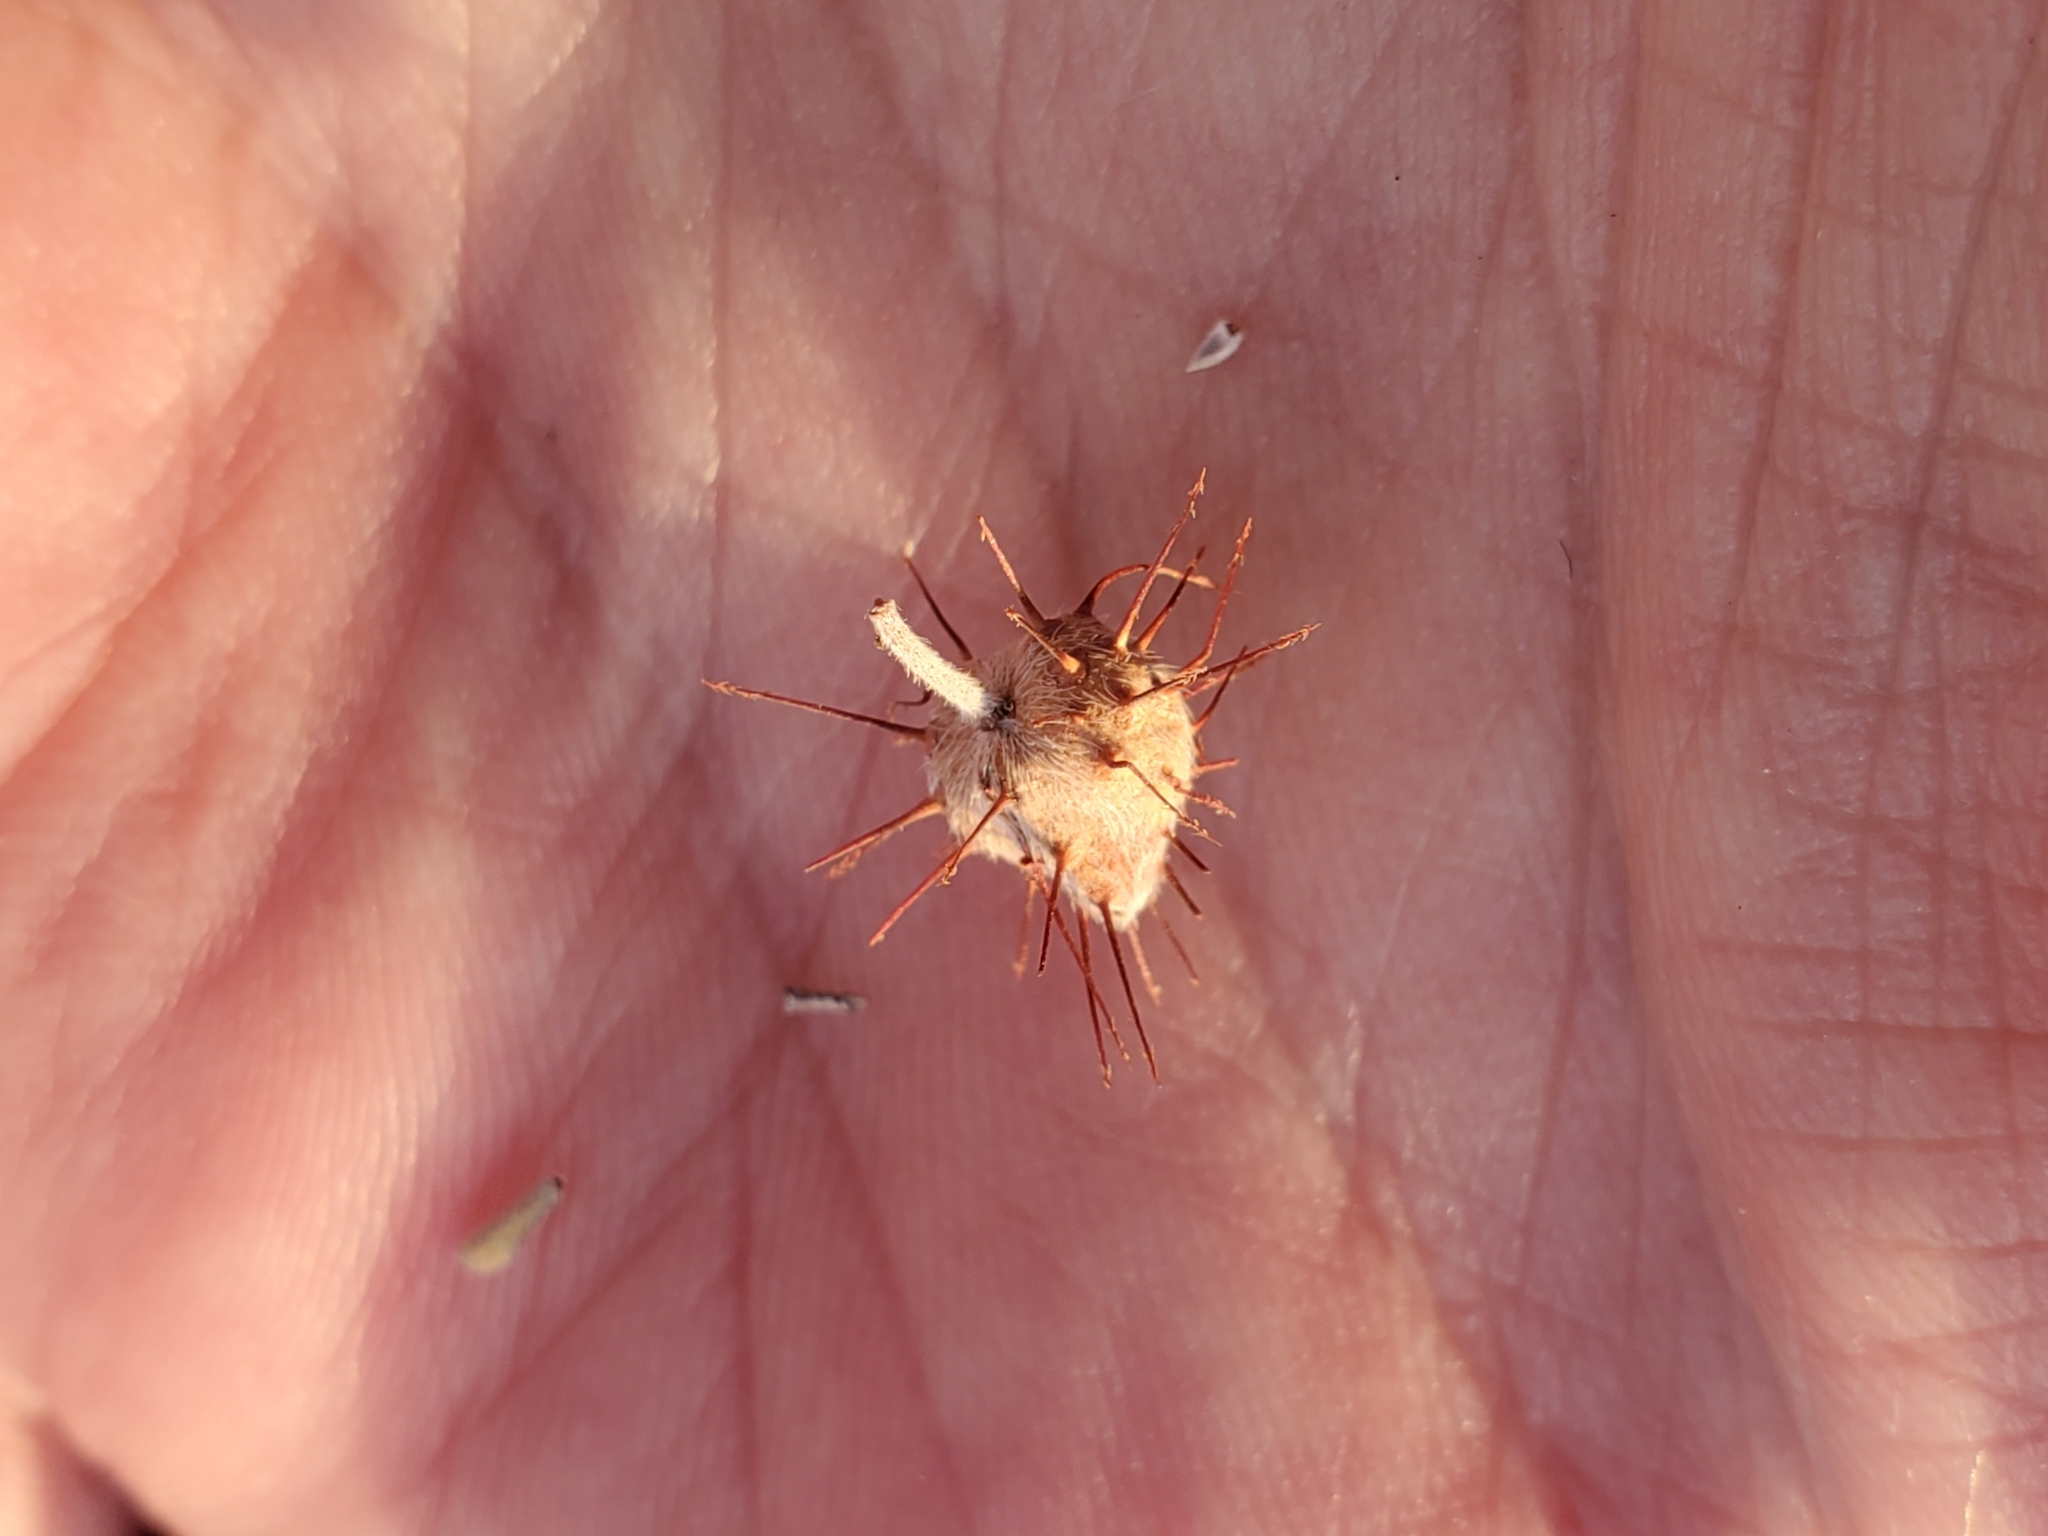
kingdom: Plantae
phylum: Tracheophyta
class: Magnoliopsida
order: Zygophyllales
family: Krameriaceae
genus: Krameria
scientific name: Krameria erecta
